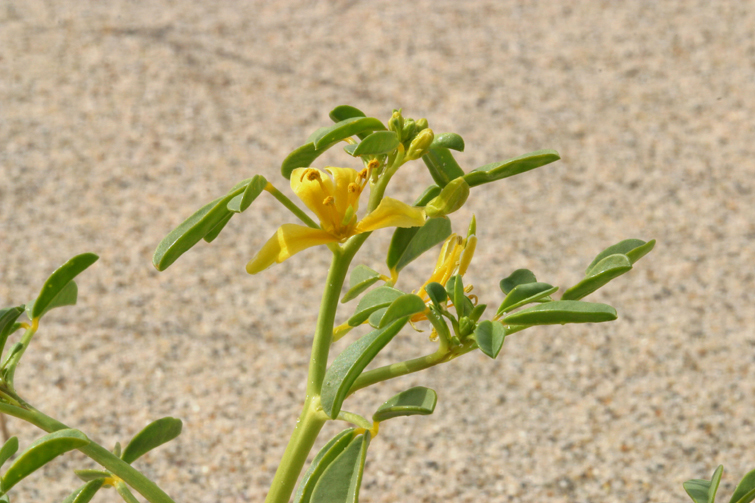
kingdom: Plantae
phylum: Tracheophyta
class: Magnoliopsida
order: Brassicales
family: Cleomaceae
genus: Cleomella
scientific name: Cleomella sparsifolia
